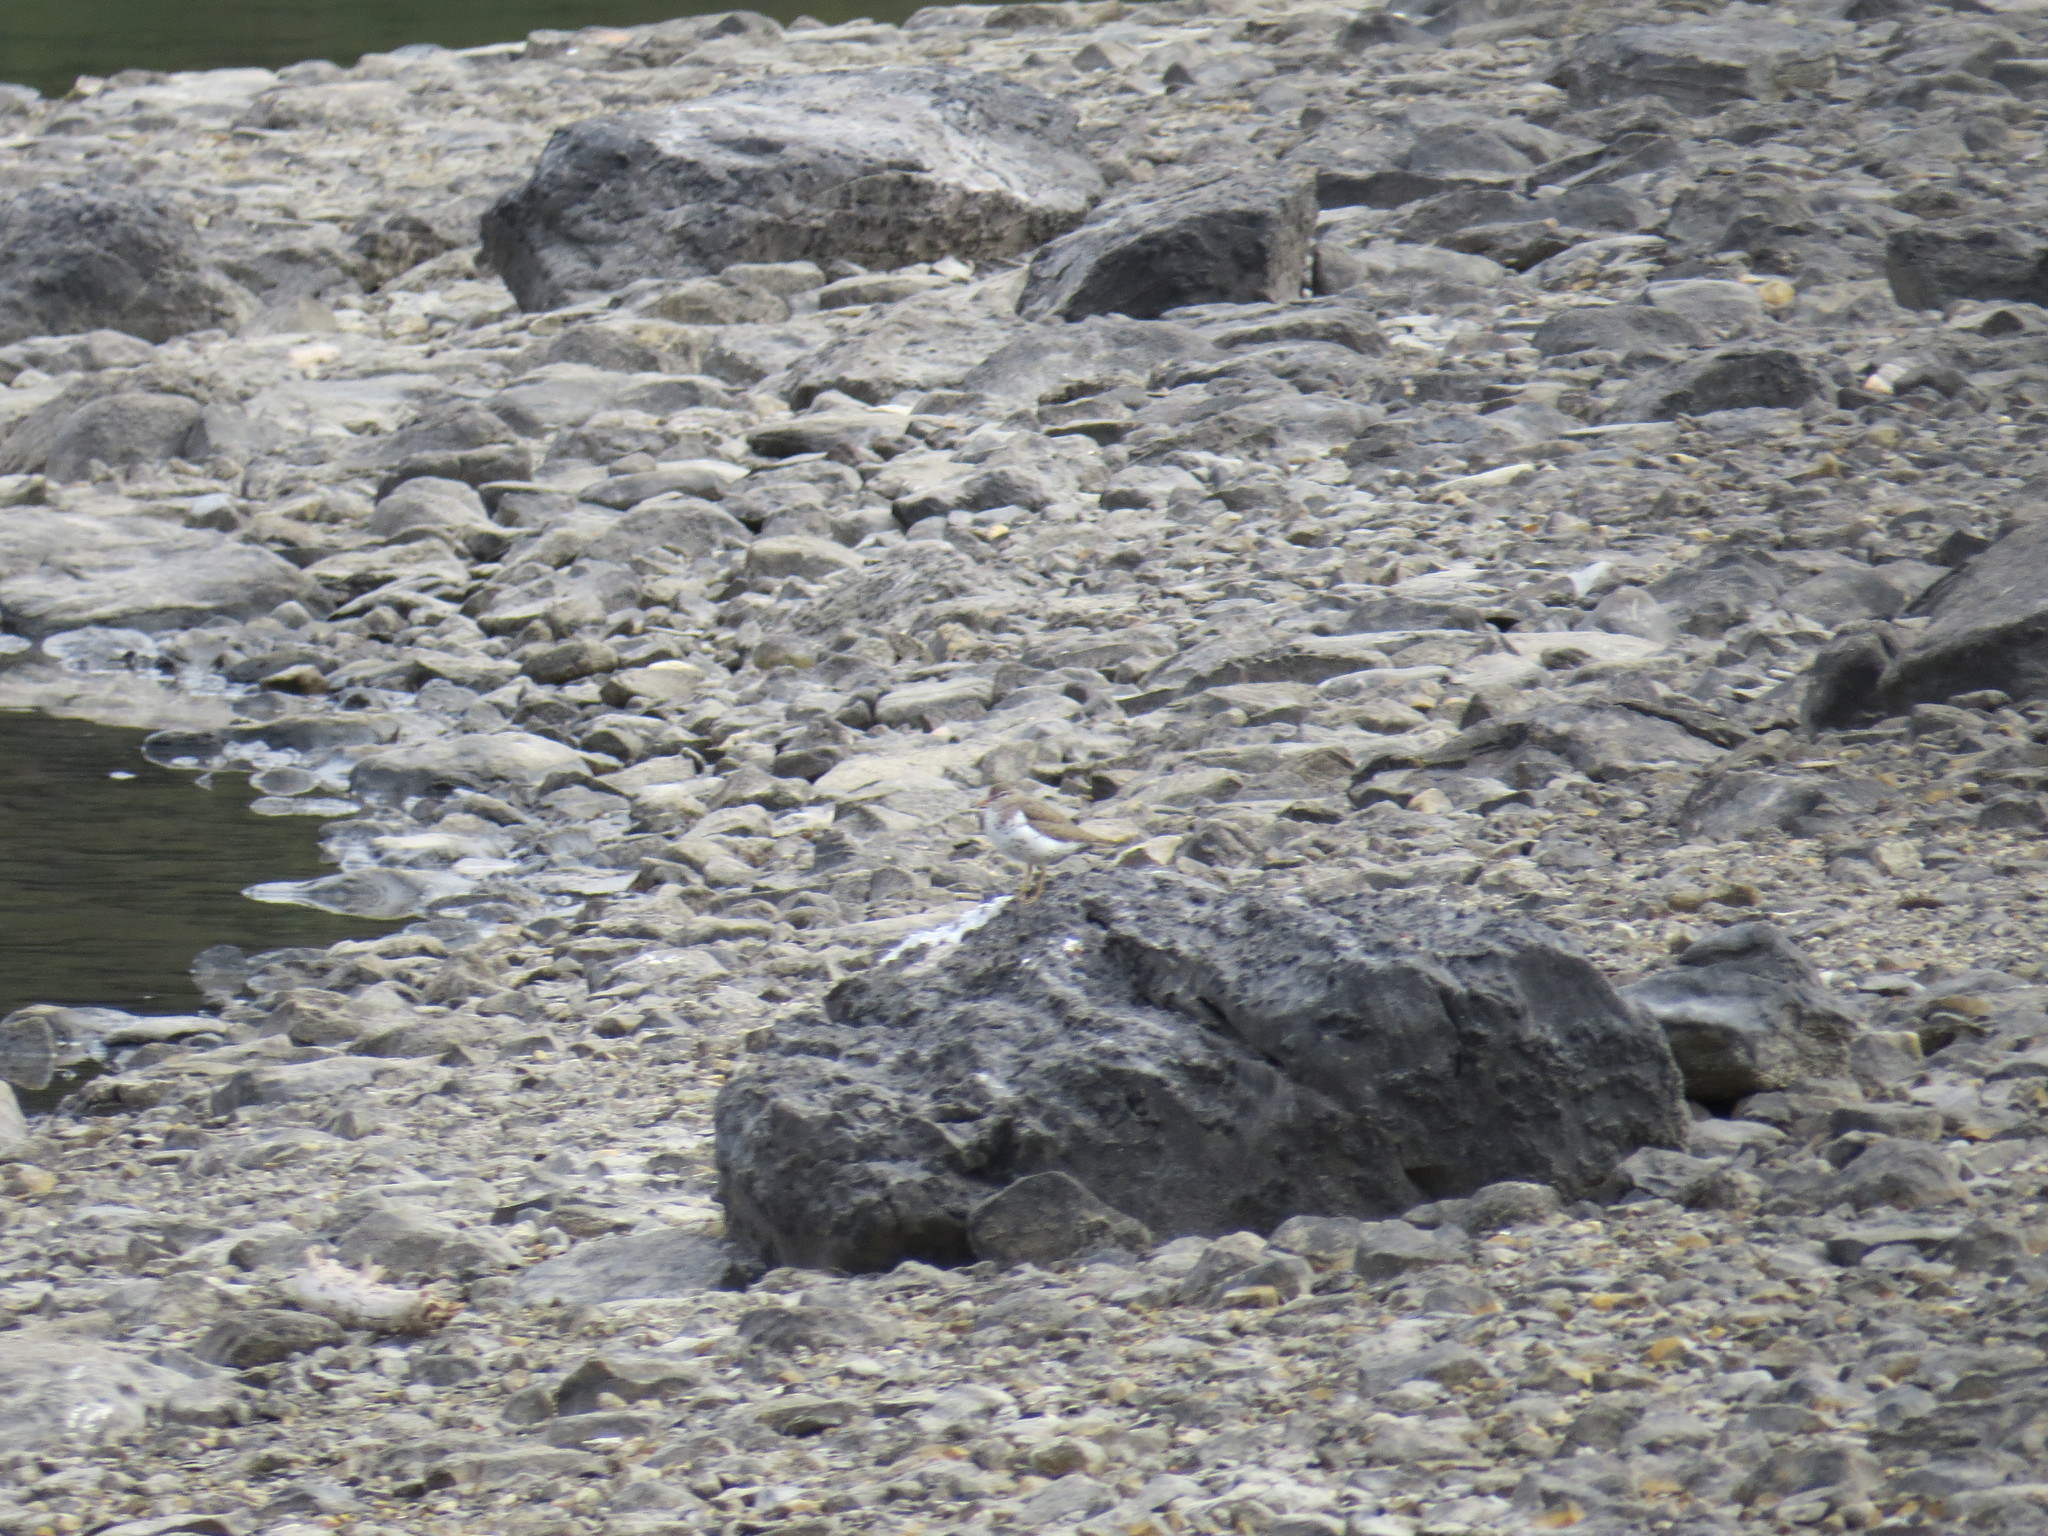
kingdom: Animalia
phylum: Chordata
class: Aves
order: Charadriiformes
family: Scolopacidae
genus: Actitis
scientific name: Actitis macularius
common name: Spotted sandpiper
